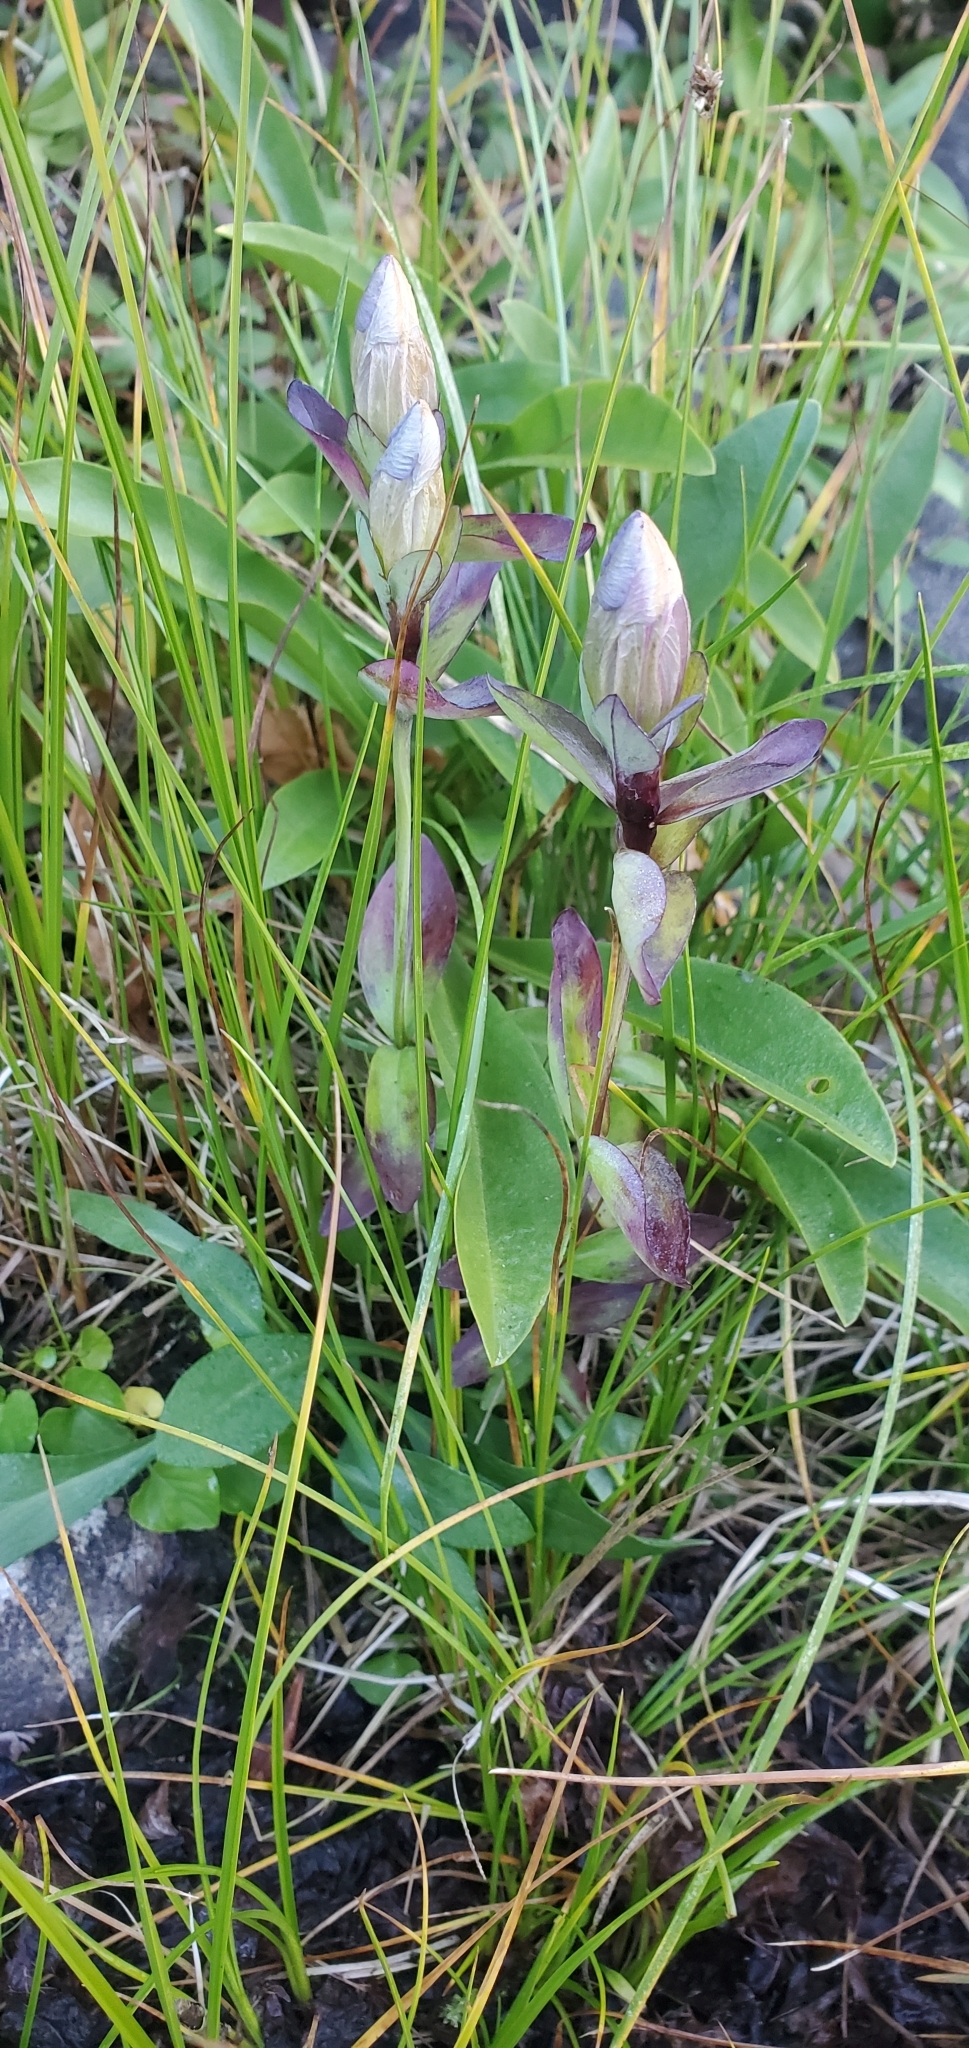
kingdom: Plantae
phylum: Tracheophyta
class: Magnoliopsida
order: Gentianales
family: Gentianaceae
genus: Gentiana
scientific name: Gentiana sceptrum
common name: Pacific gentian
